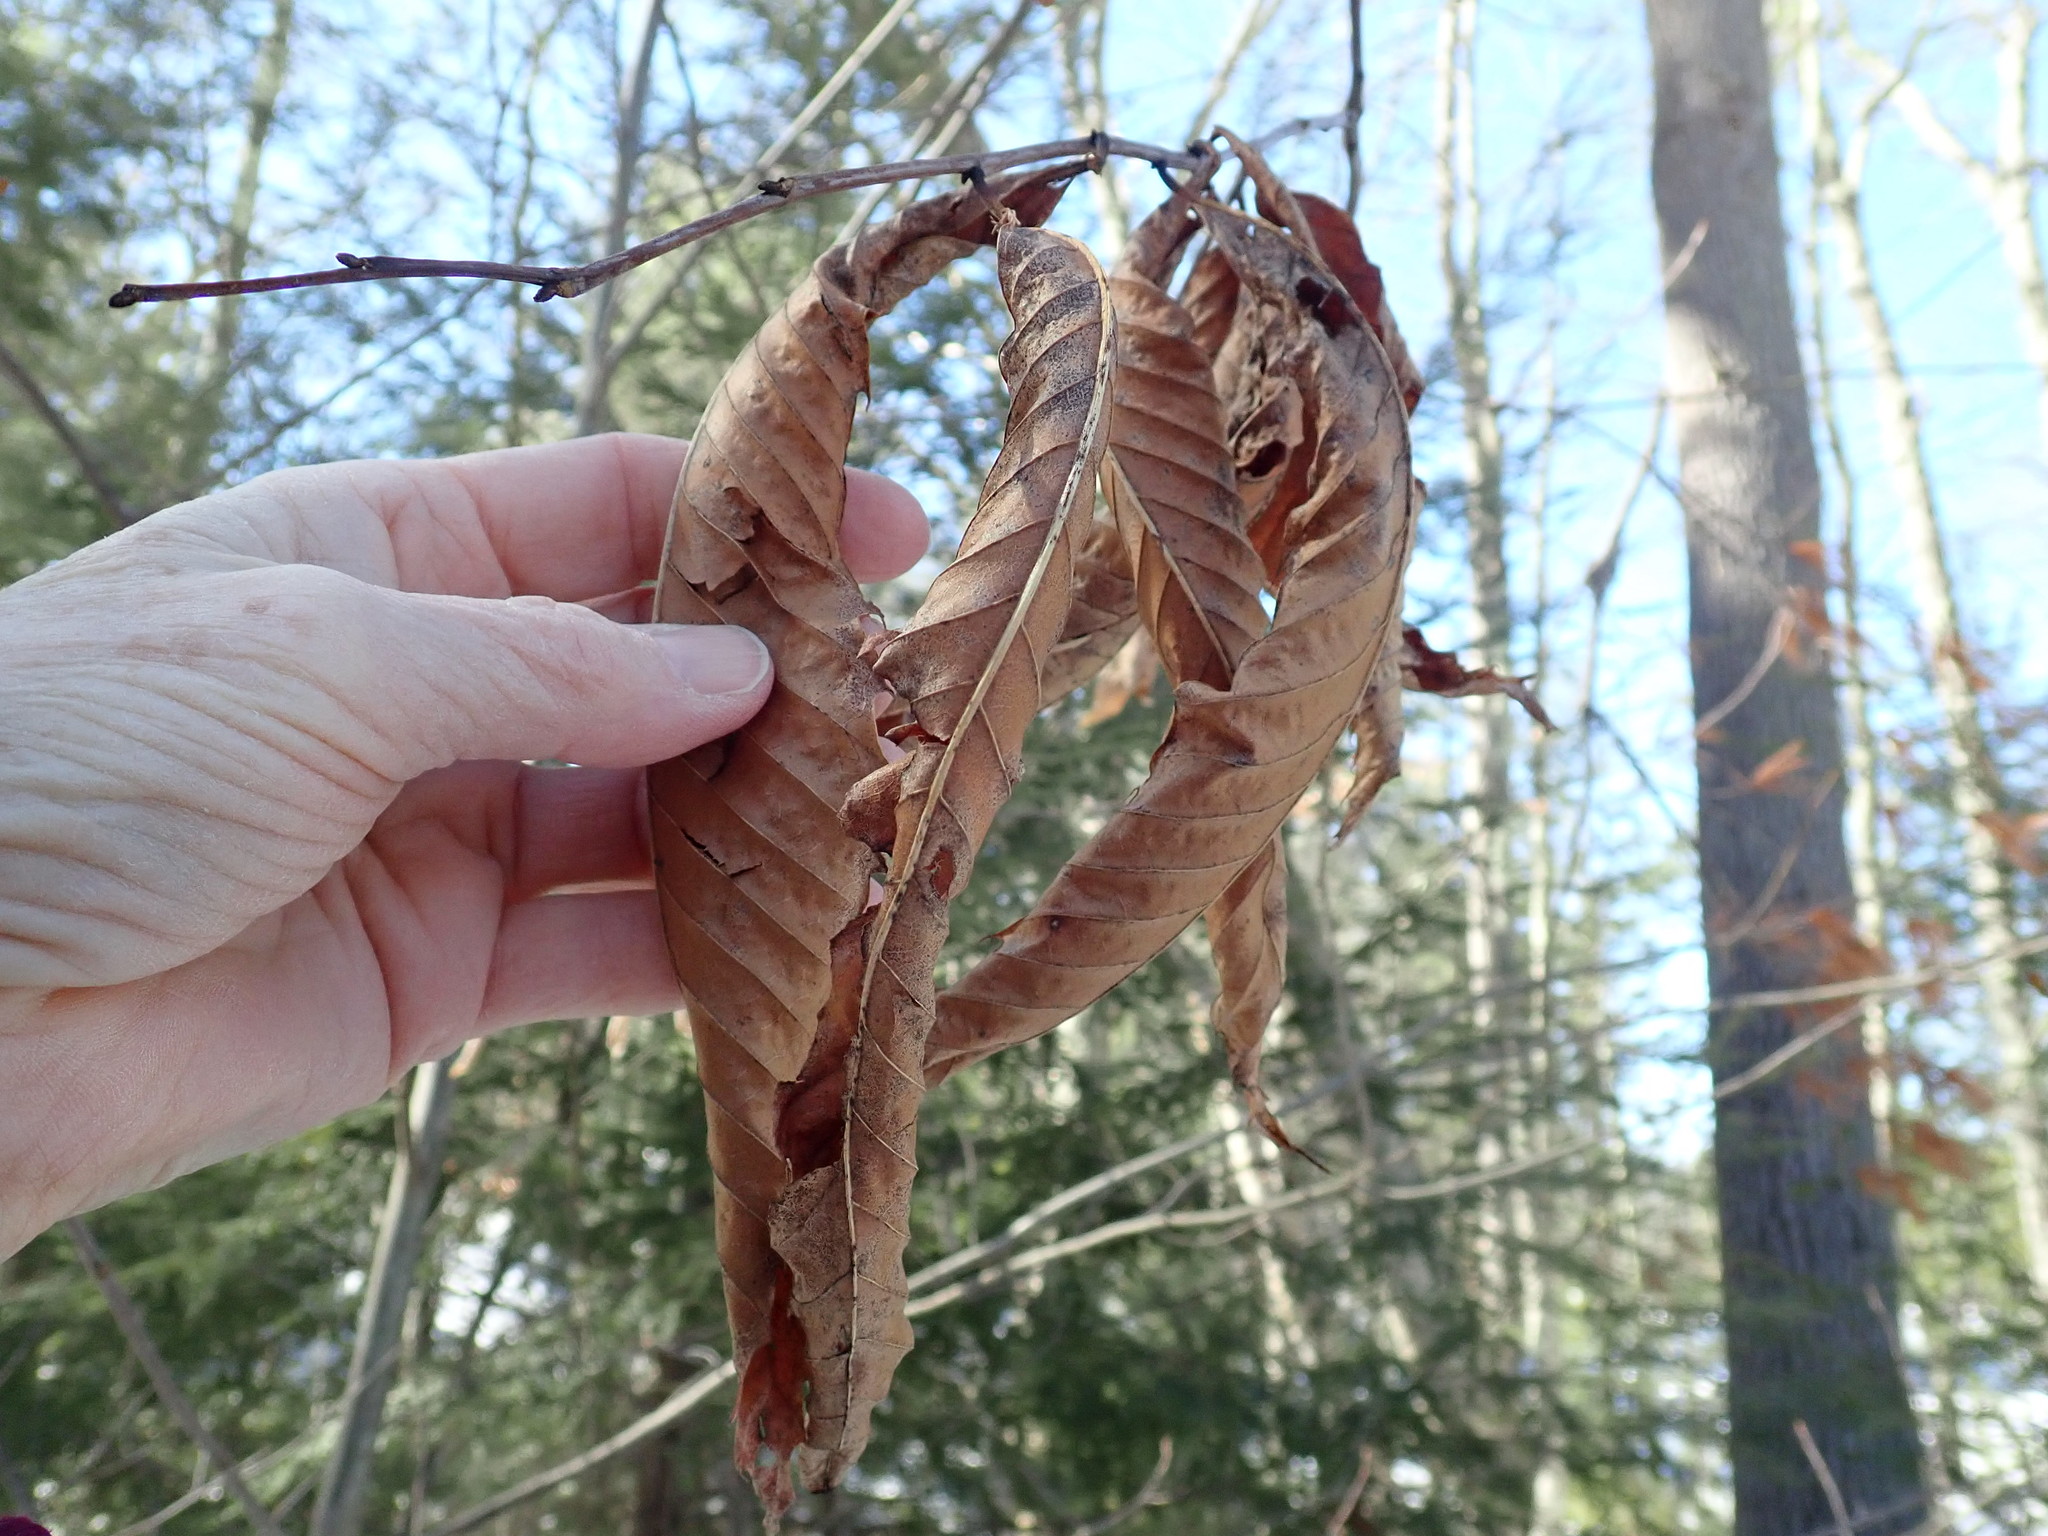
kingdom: Plantae
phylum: Tracheophyta
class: Magnoliopsida
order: Fagales
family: Fagaceae
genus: Castanea
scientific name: Castanea dentata
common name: American chestnut
